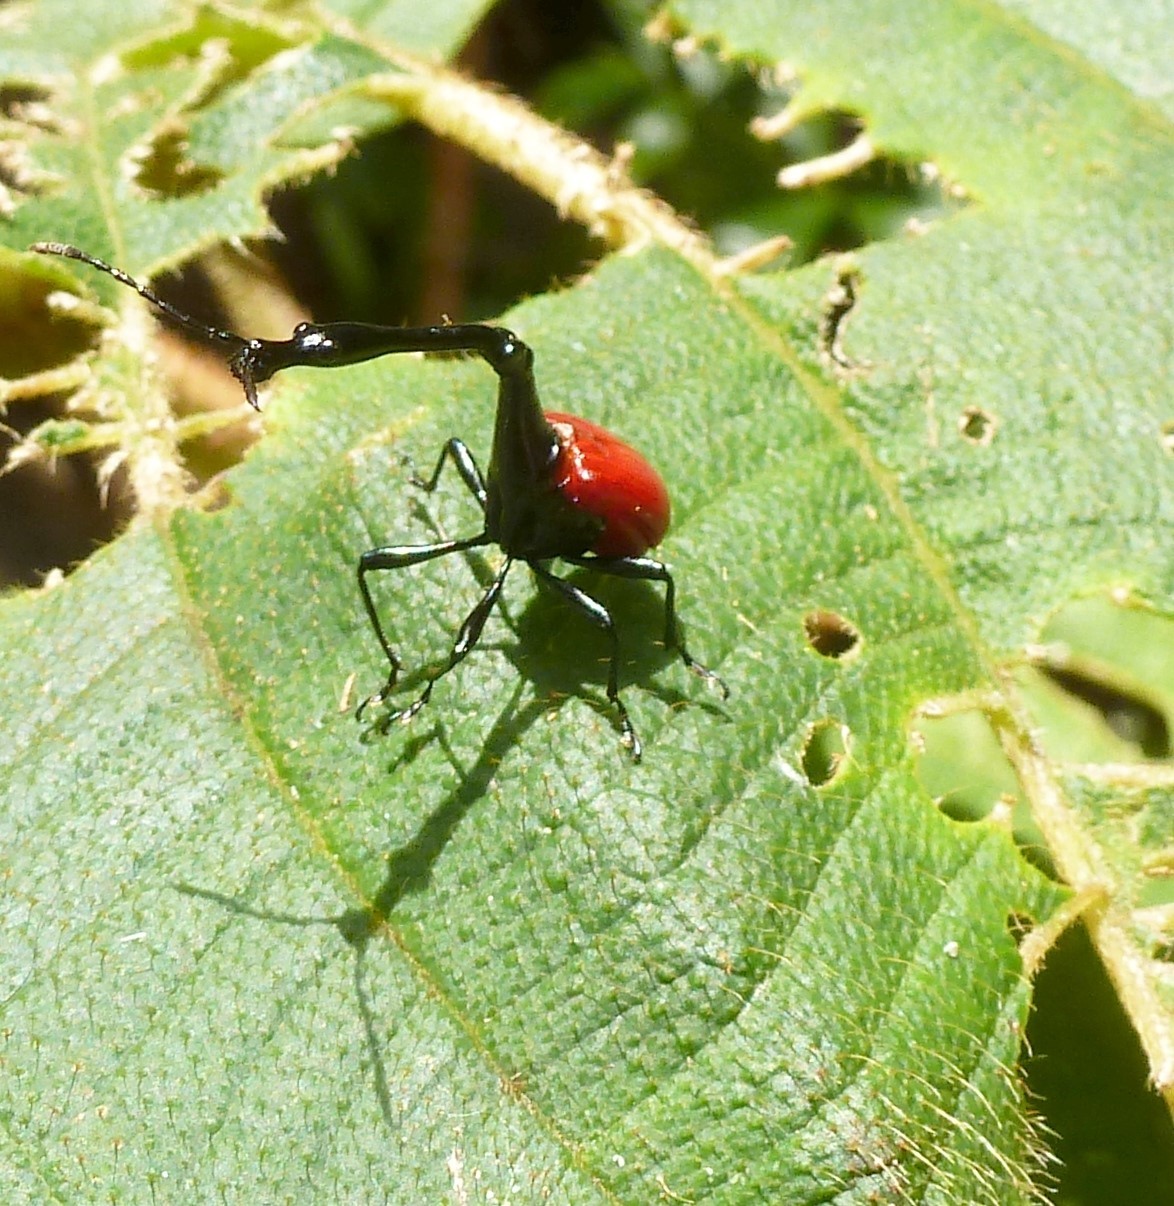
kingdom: Animalia
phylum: Arthropoda
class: Insecta
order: Coleoptera
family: Attelabidae
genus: Trachelophorus
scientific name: Trachelophorus giraffa
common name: Giraffe weevil
